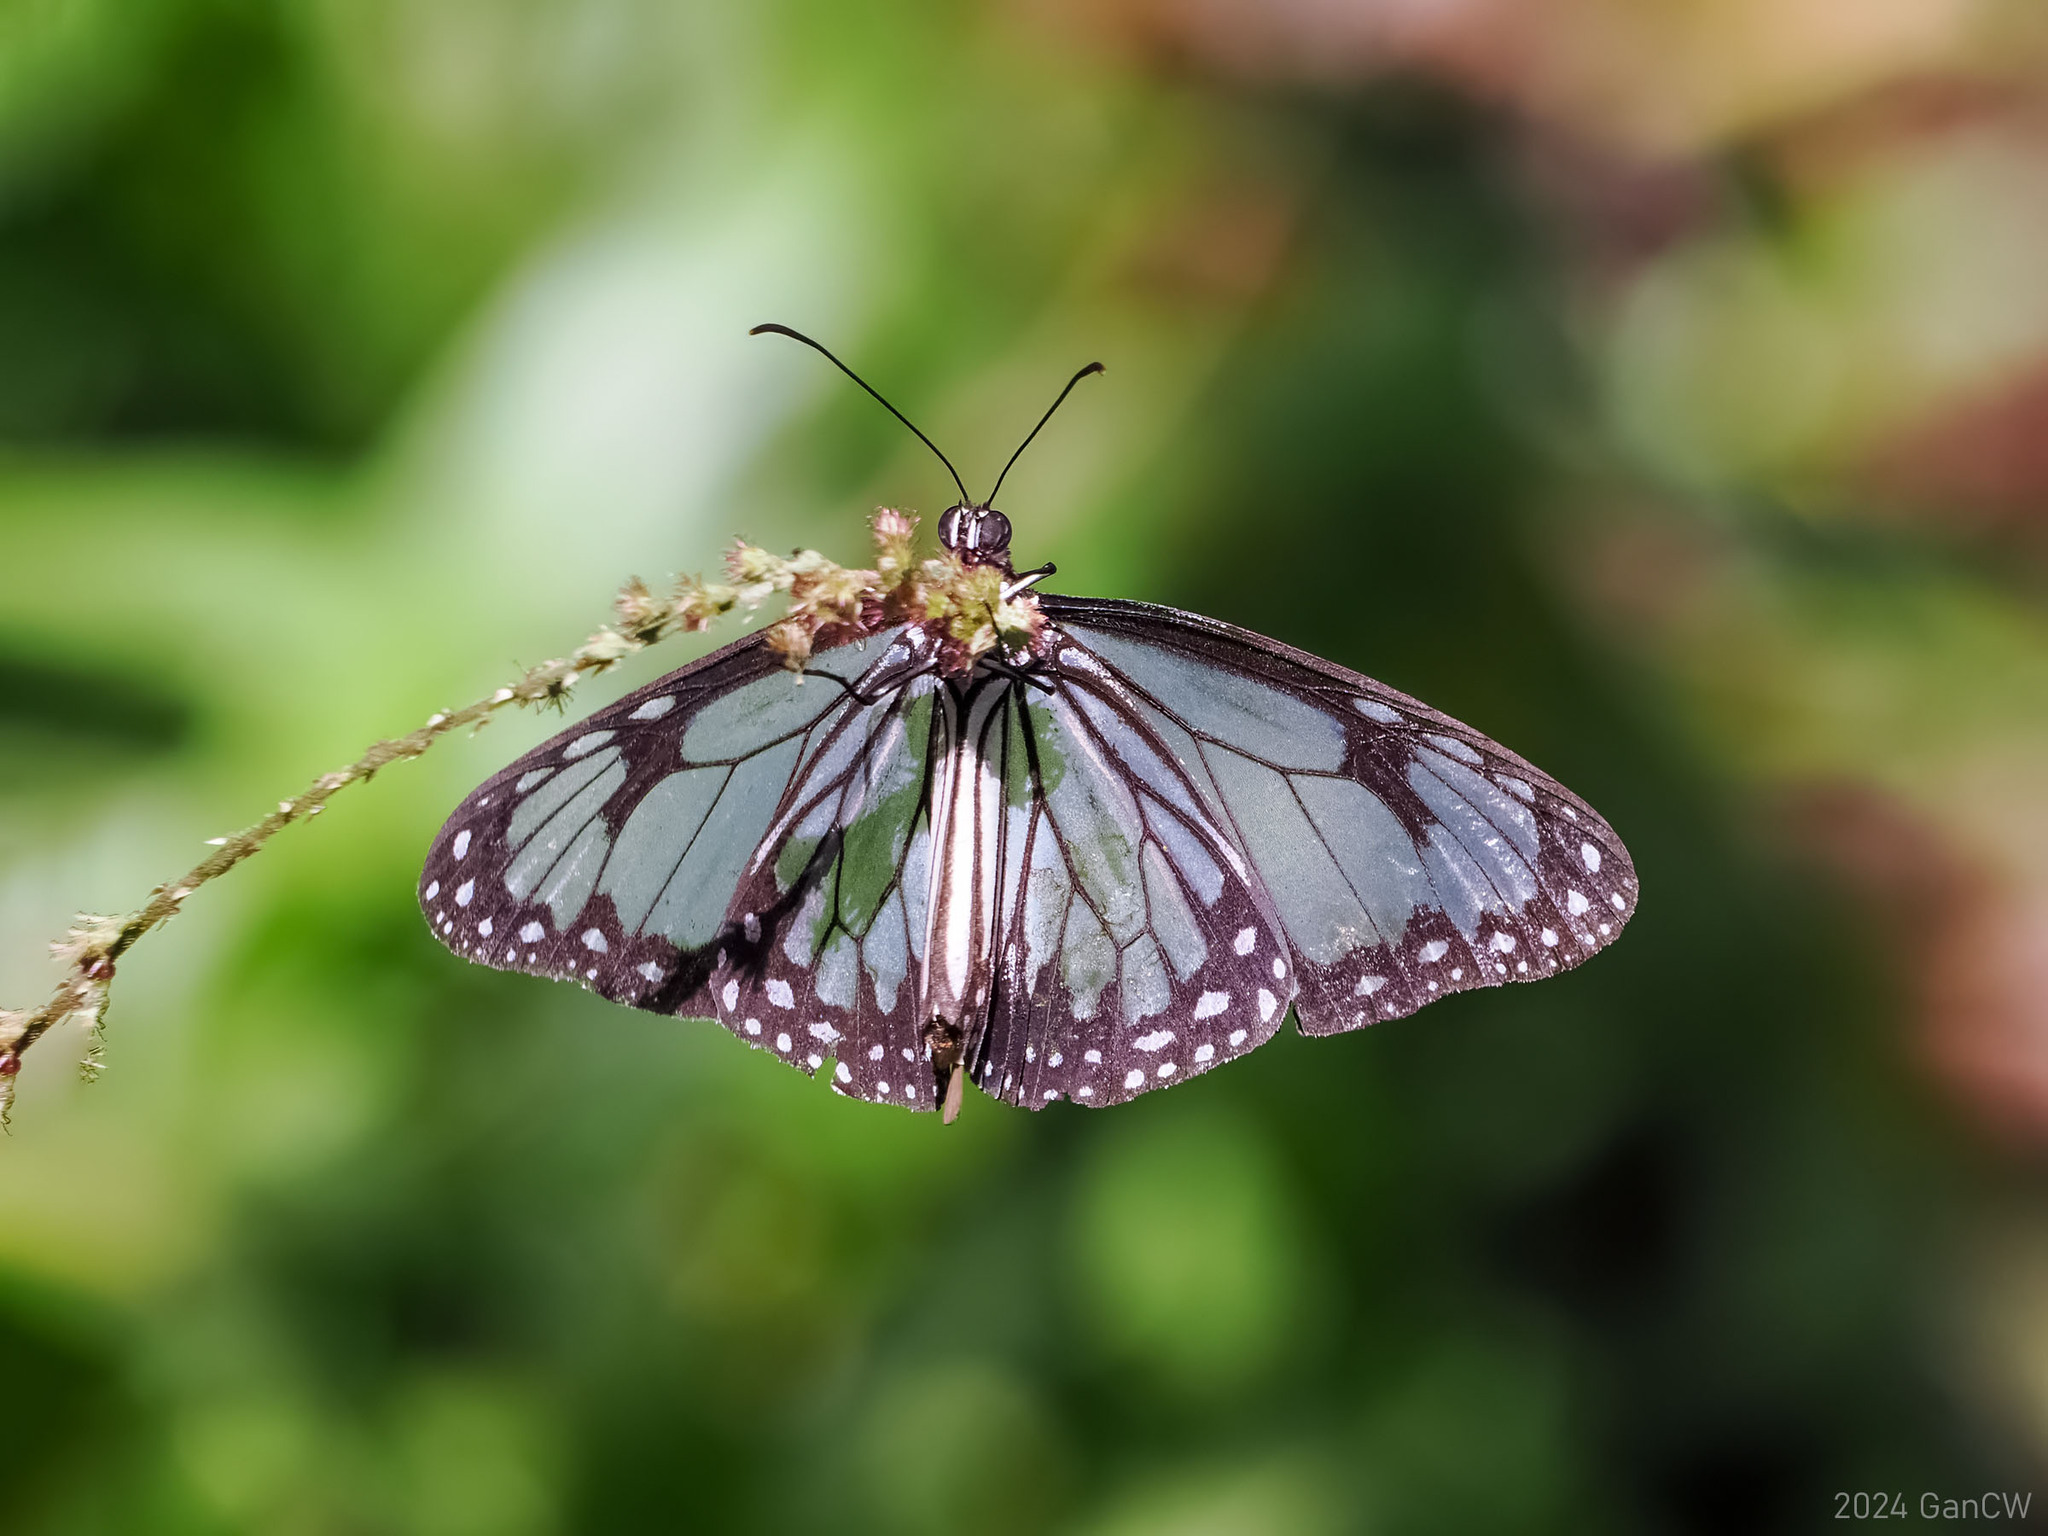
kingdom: Animalia
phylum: Arthropoda
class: Insecta
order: Lepidoptera
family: Nymphalidae
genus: Parantica
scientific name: Parantica vitrina
